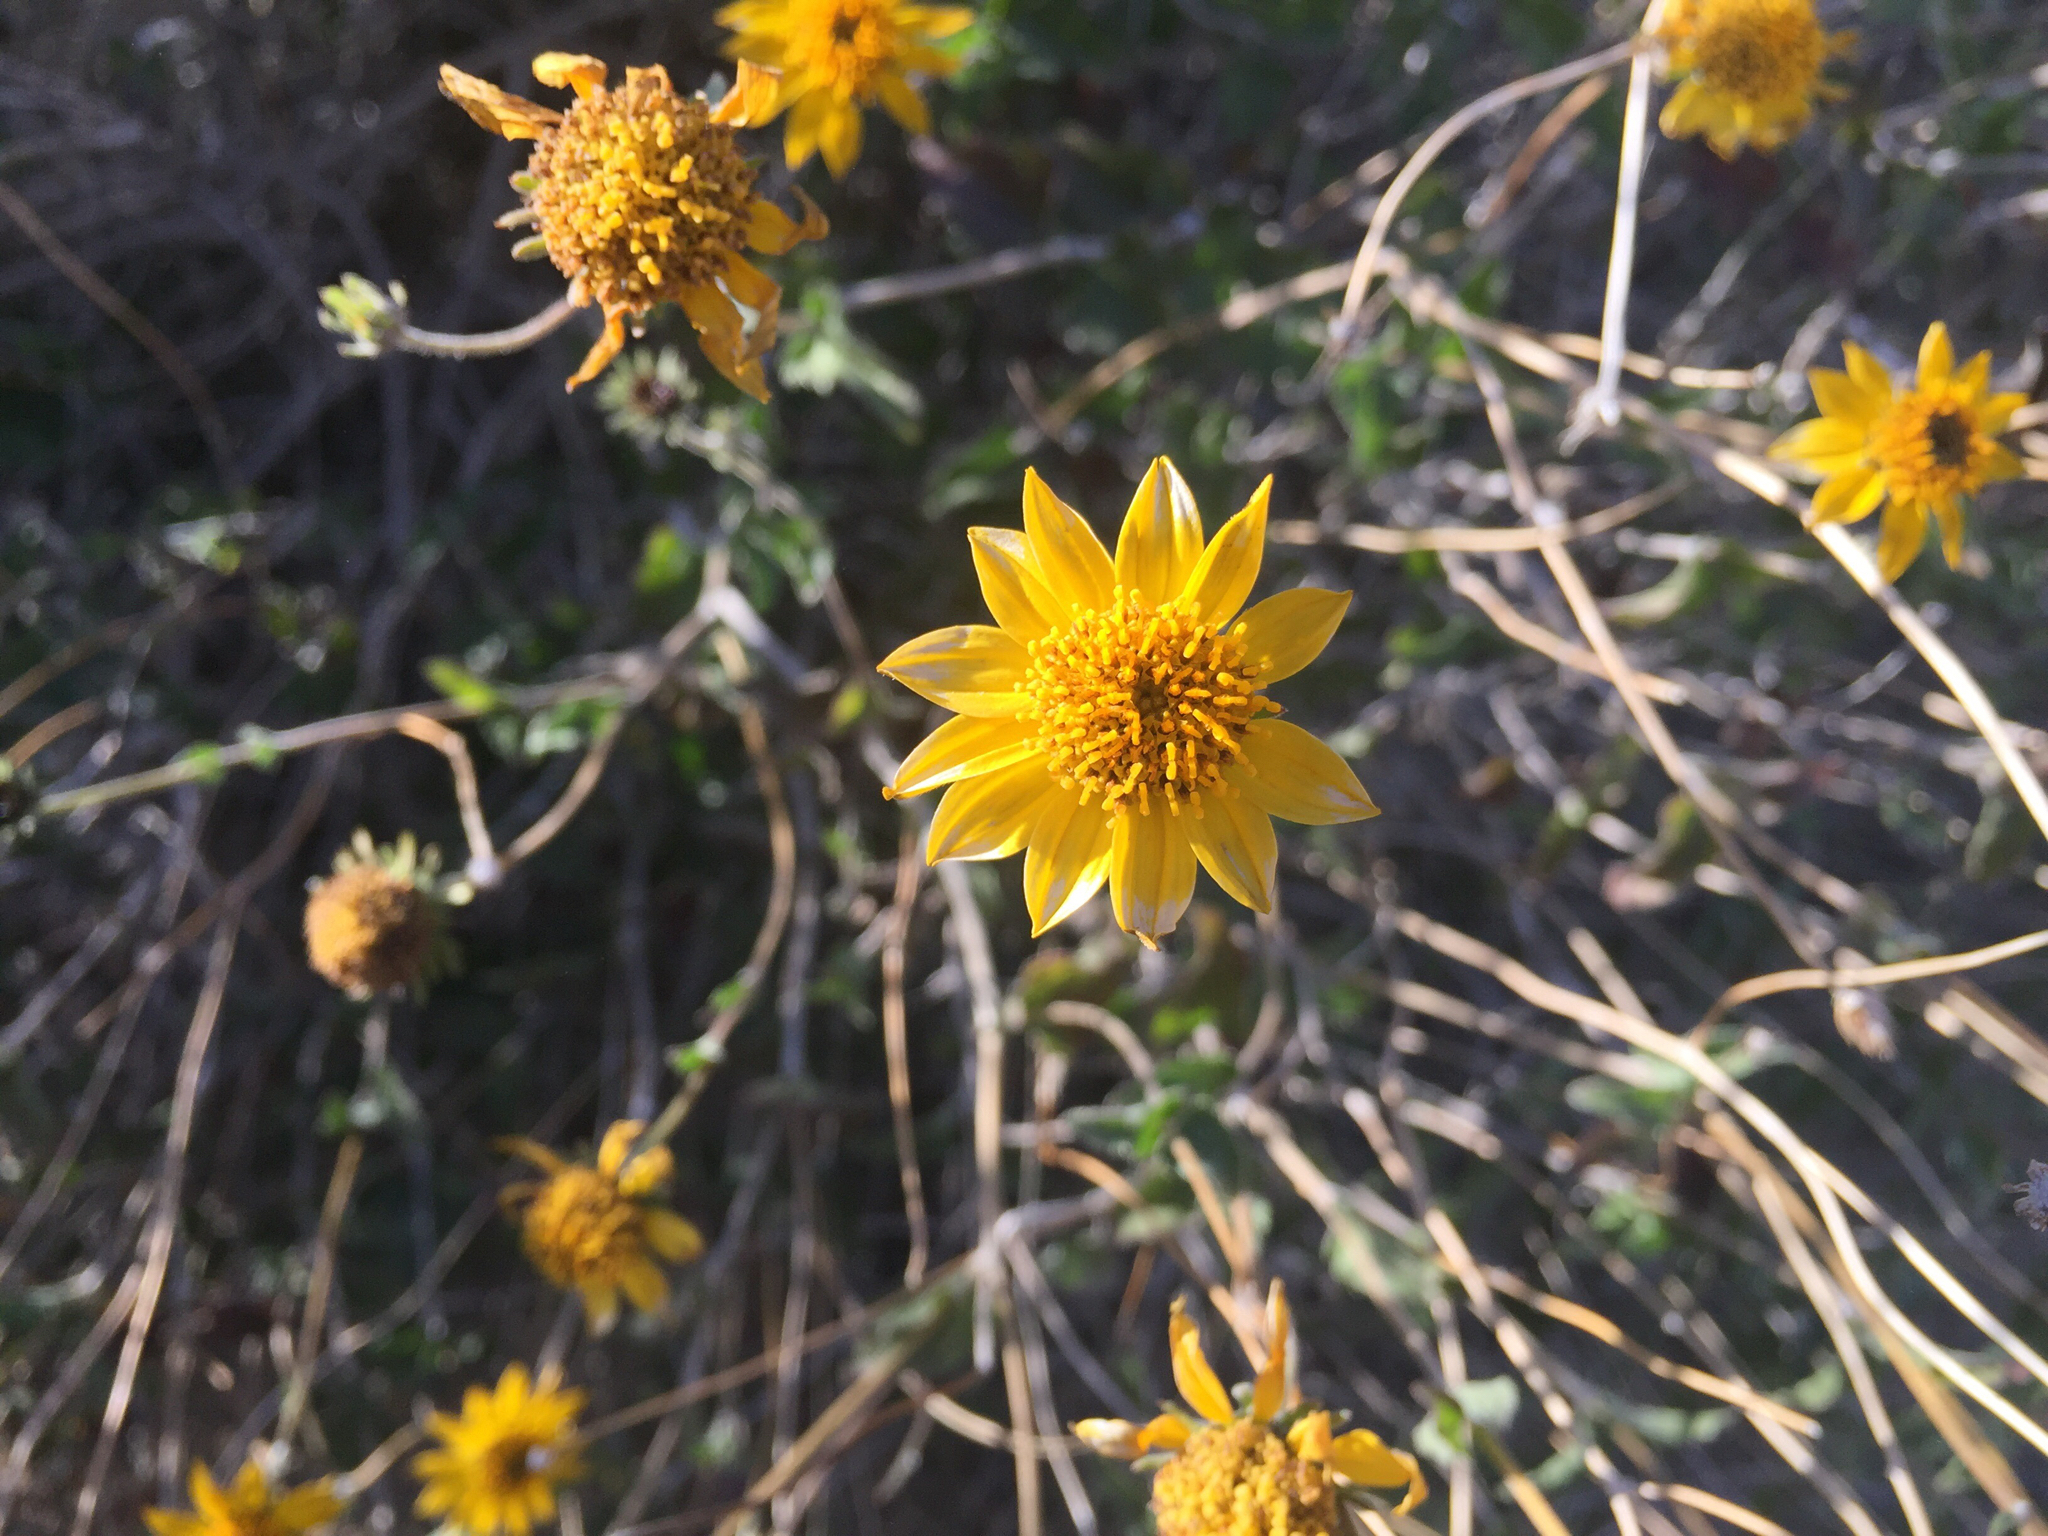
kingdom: Plantae
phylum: Tracheophyta
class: Magnoliopsida
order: Asterales
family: Asteraceae
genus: Bahiopsis
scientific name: Bahiopsis parishii
